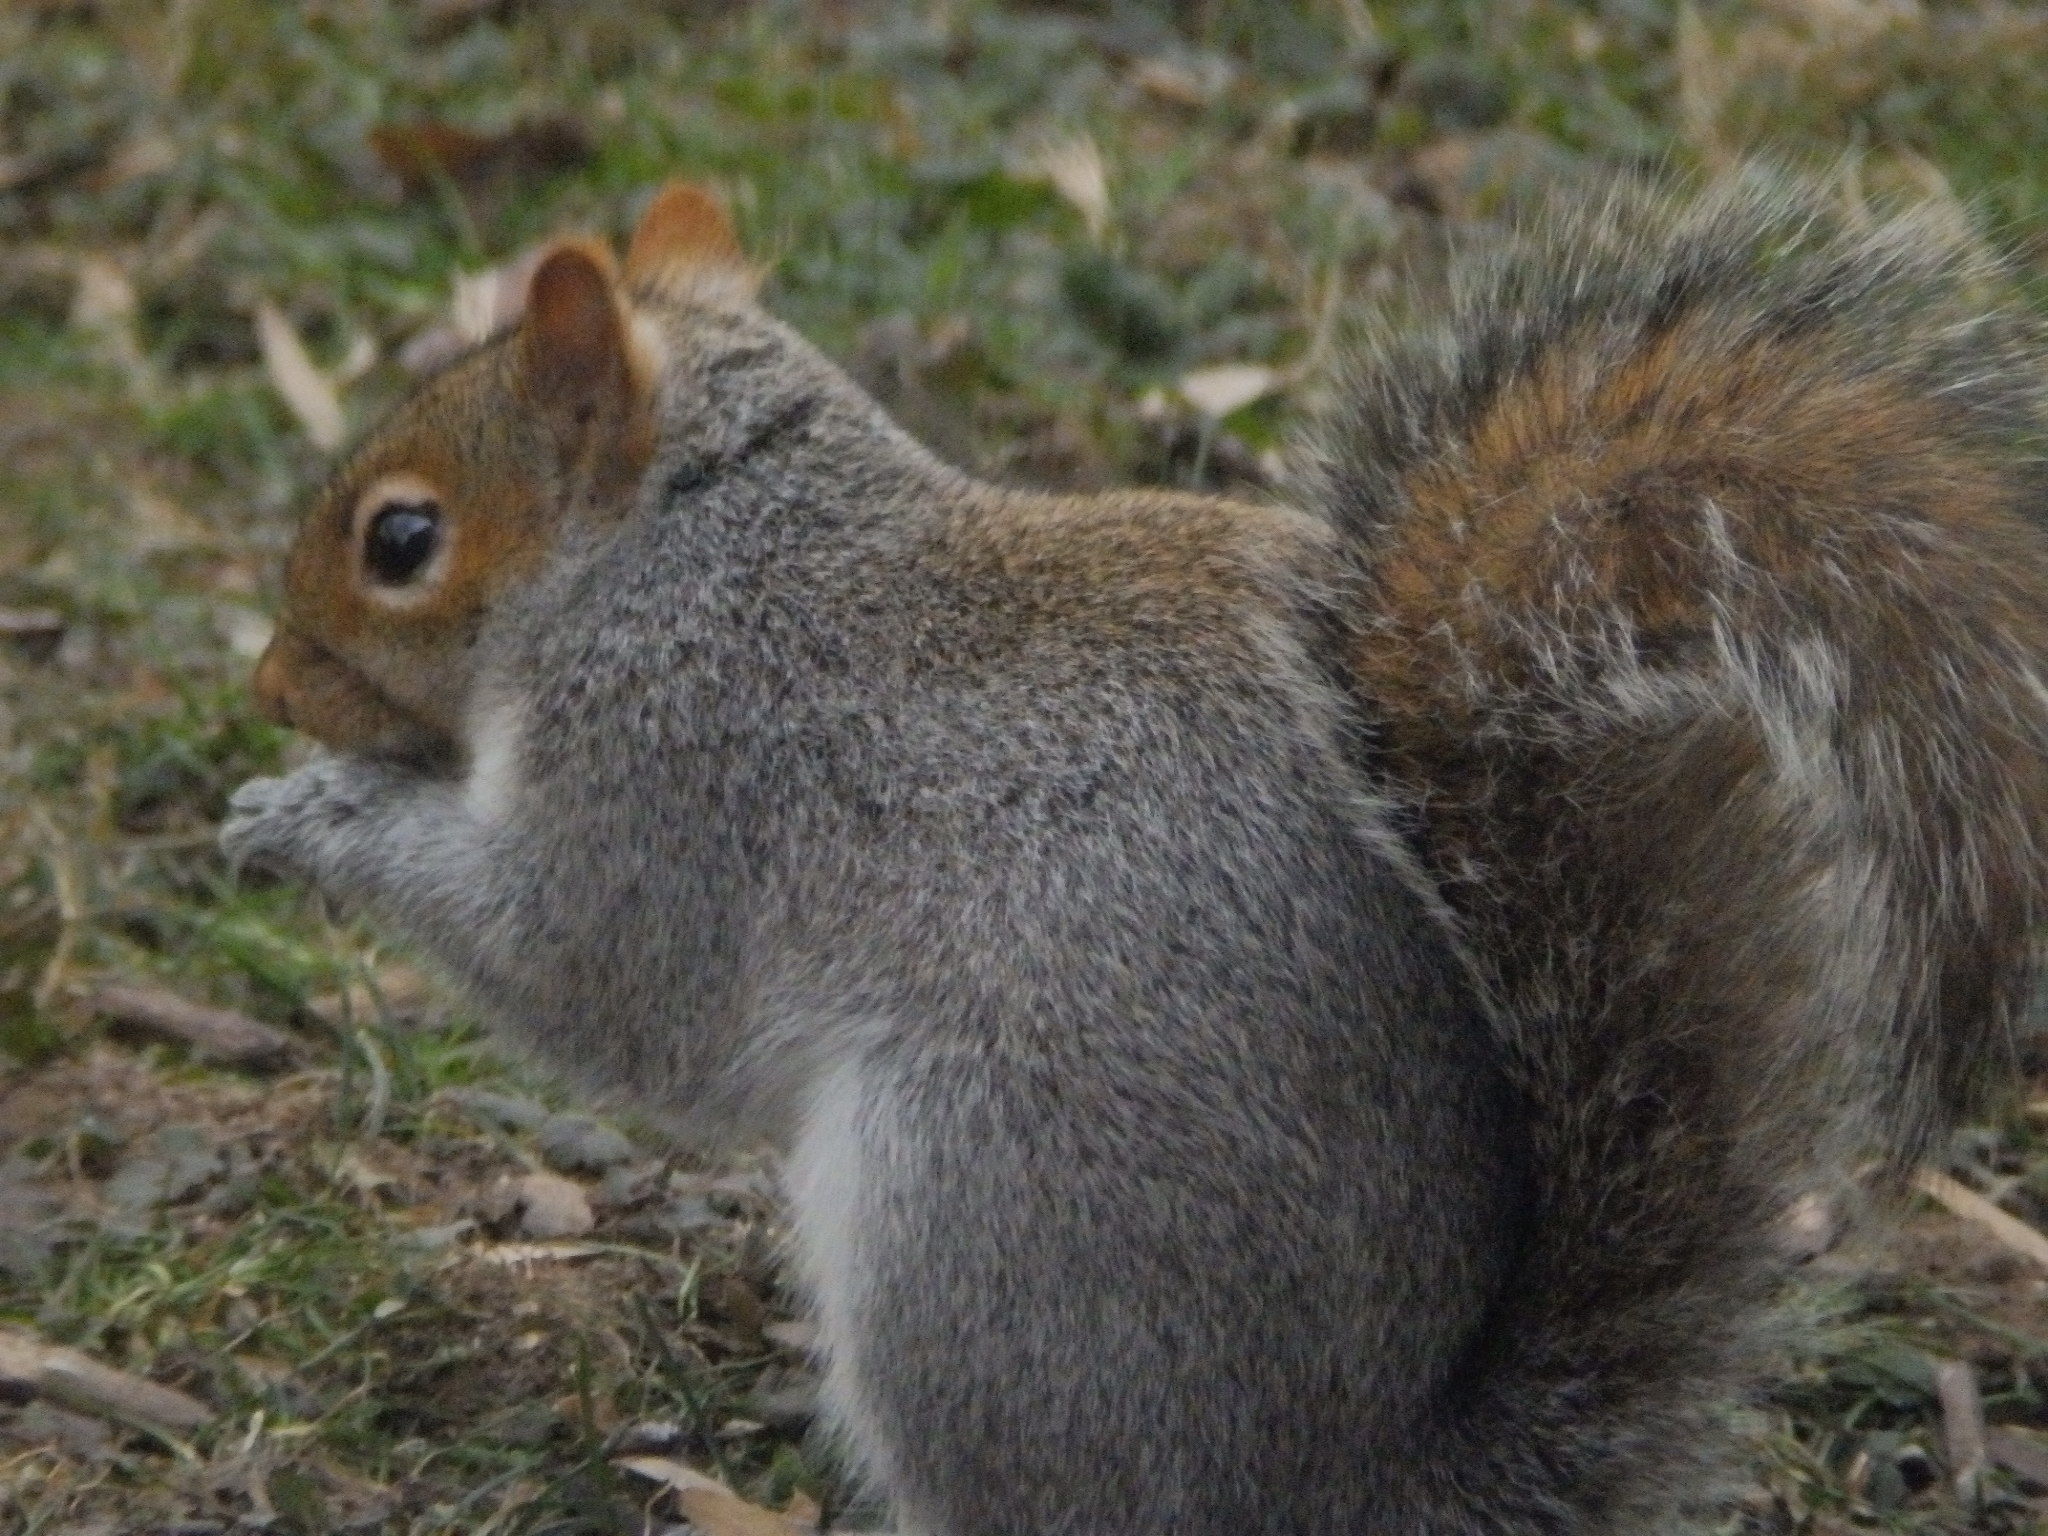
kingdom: Animalia
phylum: Chordata
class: Mammalia
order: Rodentia
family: Sciuridae
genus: Sciurus
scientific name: Sciurus carolinensis
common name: Eastern gray squirrel
